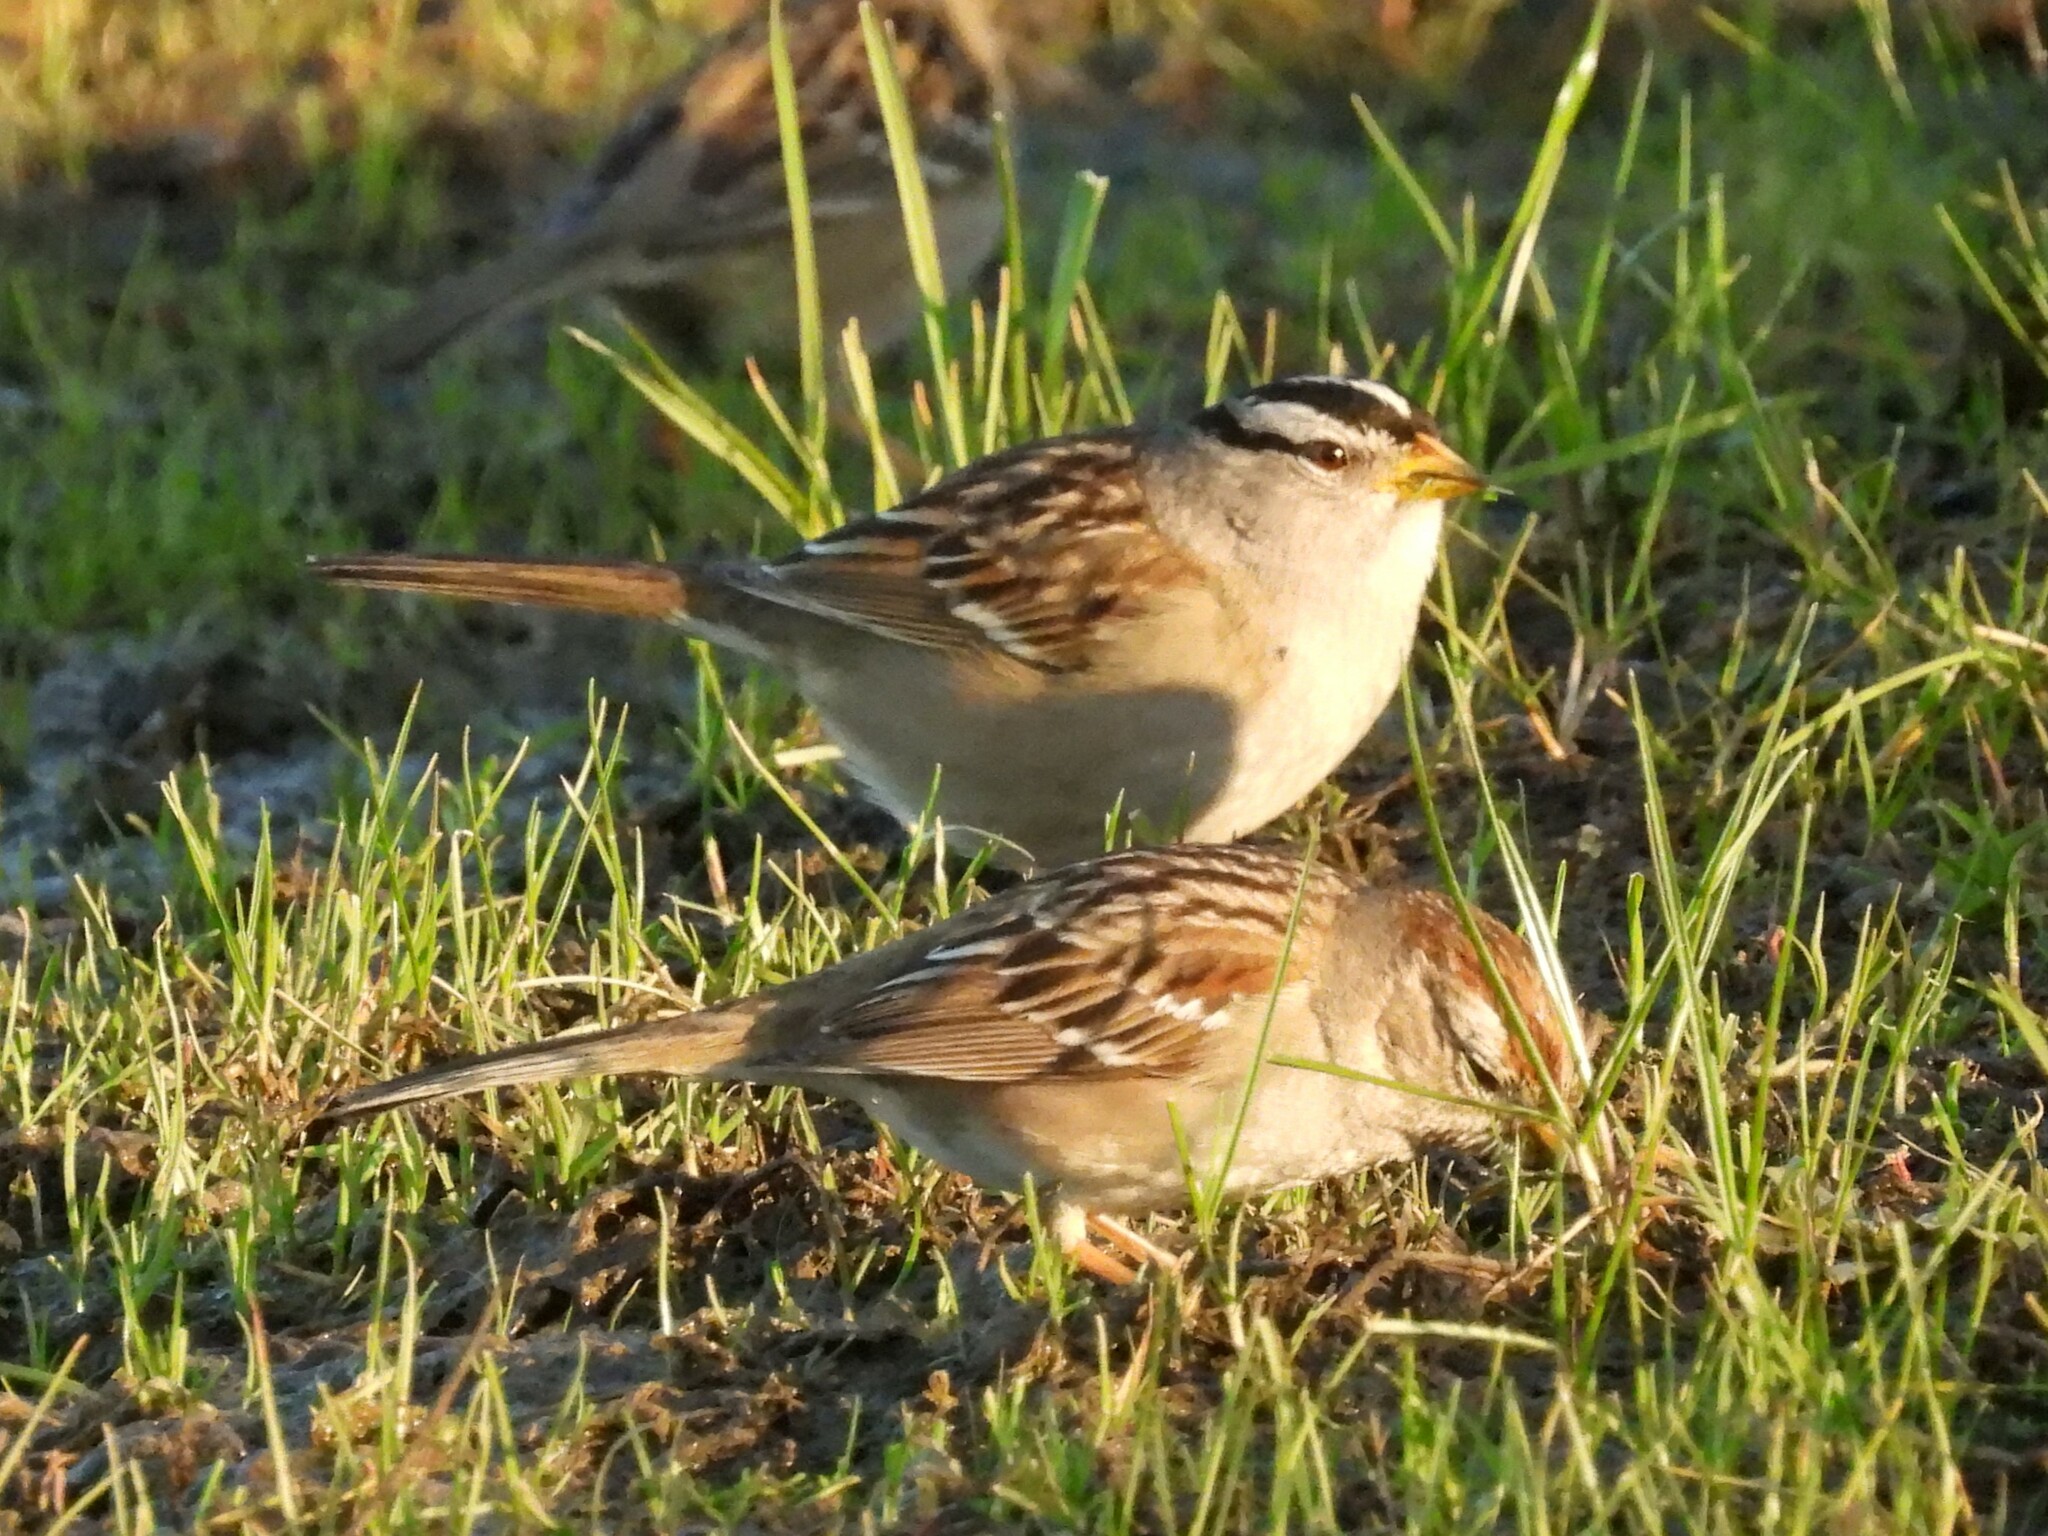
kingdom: Animalia
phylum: Chordata
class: Aves
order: Passeriformes
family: Passerellidae
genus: Zonotrichia
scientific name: Zonotrichia leucophrys
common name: White-crowned sparrow
